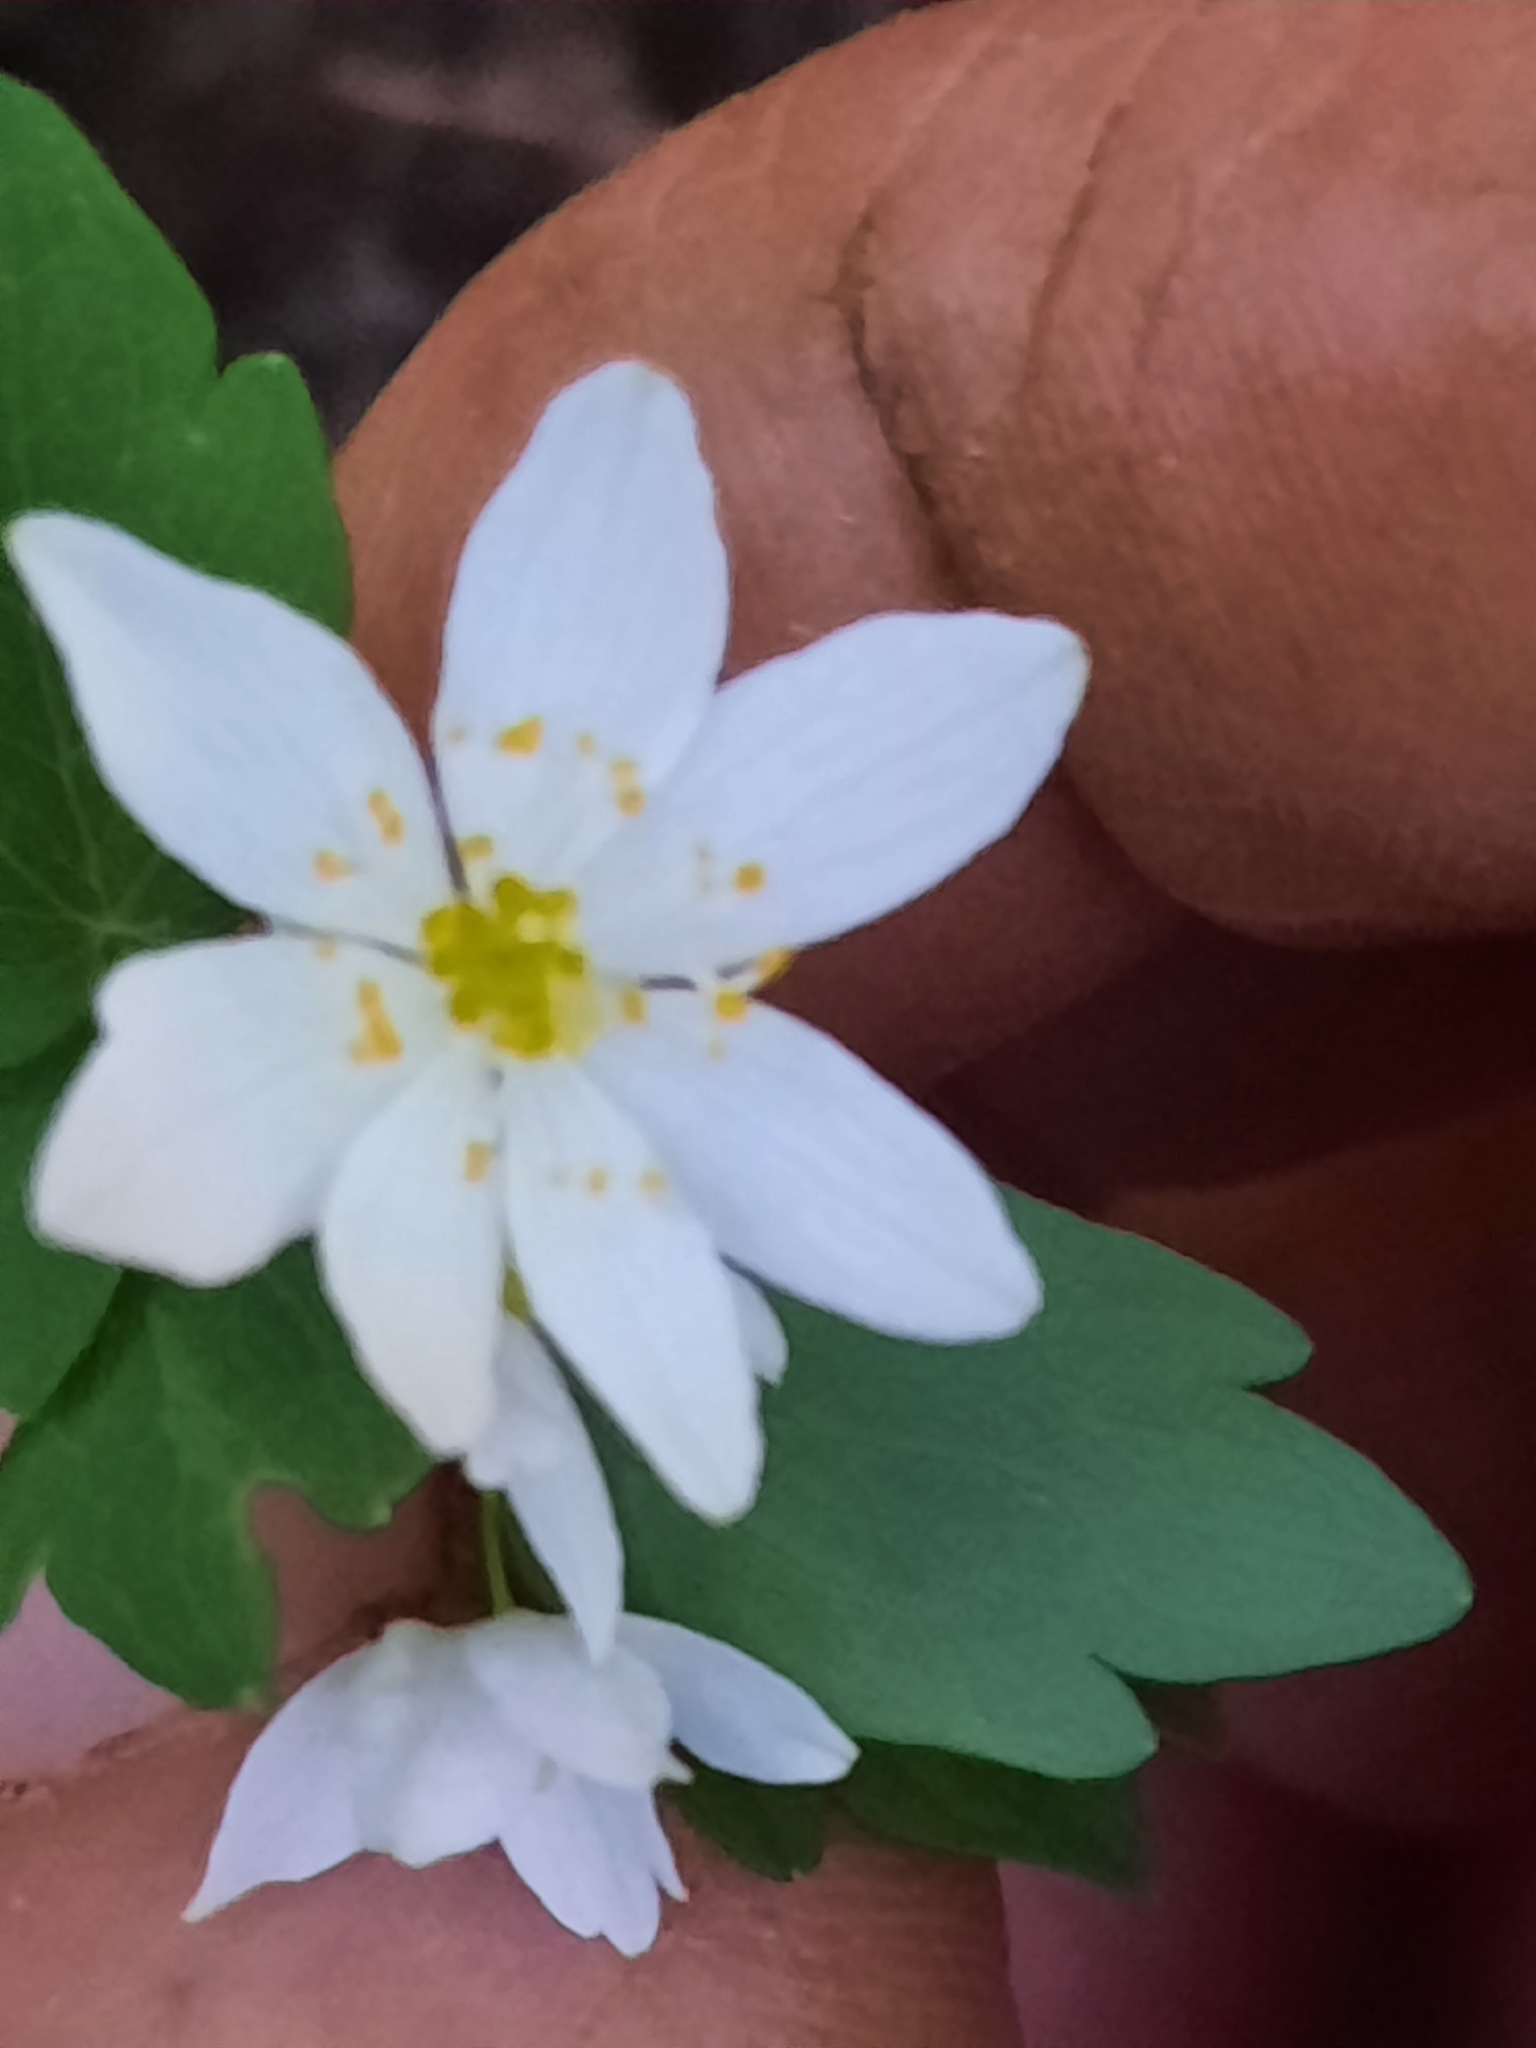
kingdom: Plantae
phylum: Tracheophyta
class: Magnoliopsida
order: Ranunculales
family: Ranunculaceae
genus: Thalictrum
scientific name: Thalictrum thalictroides
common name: Rue-anemone
